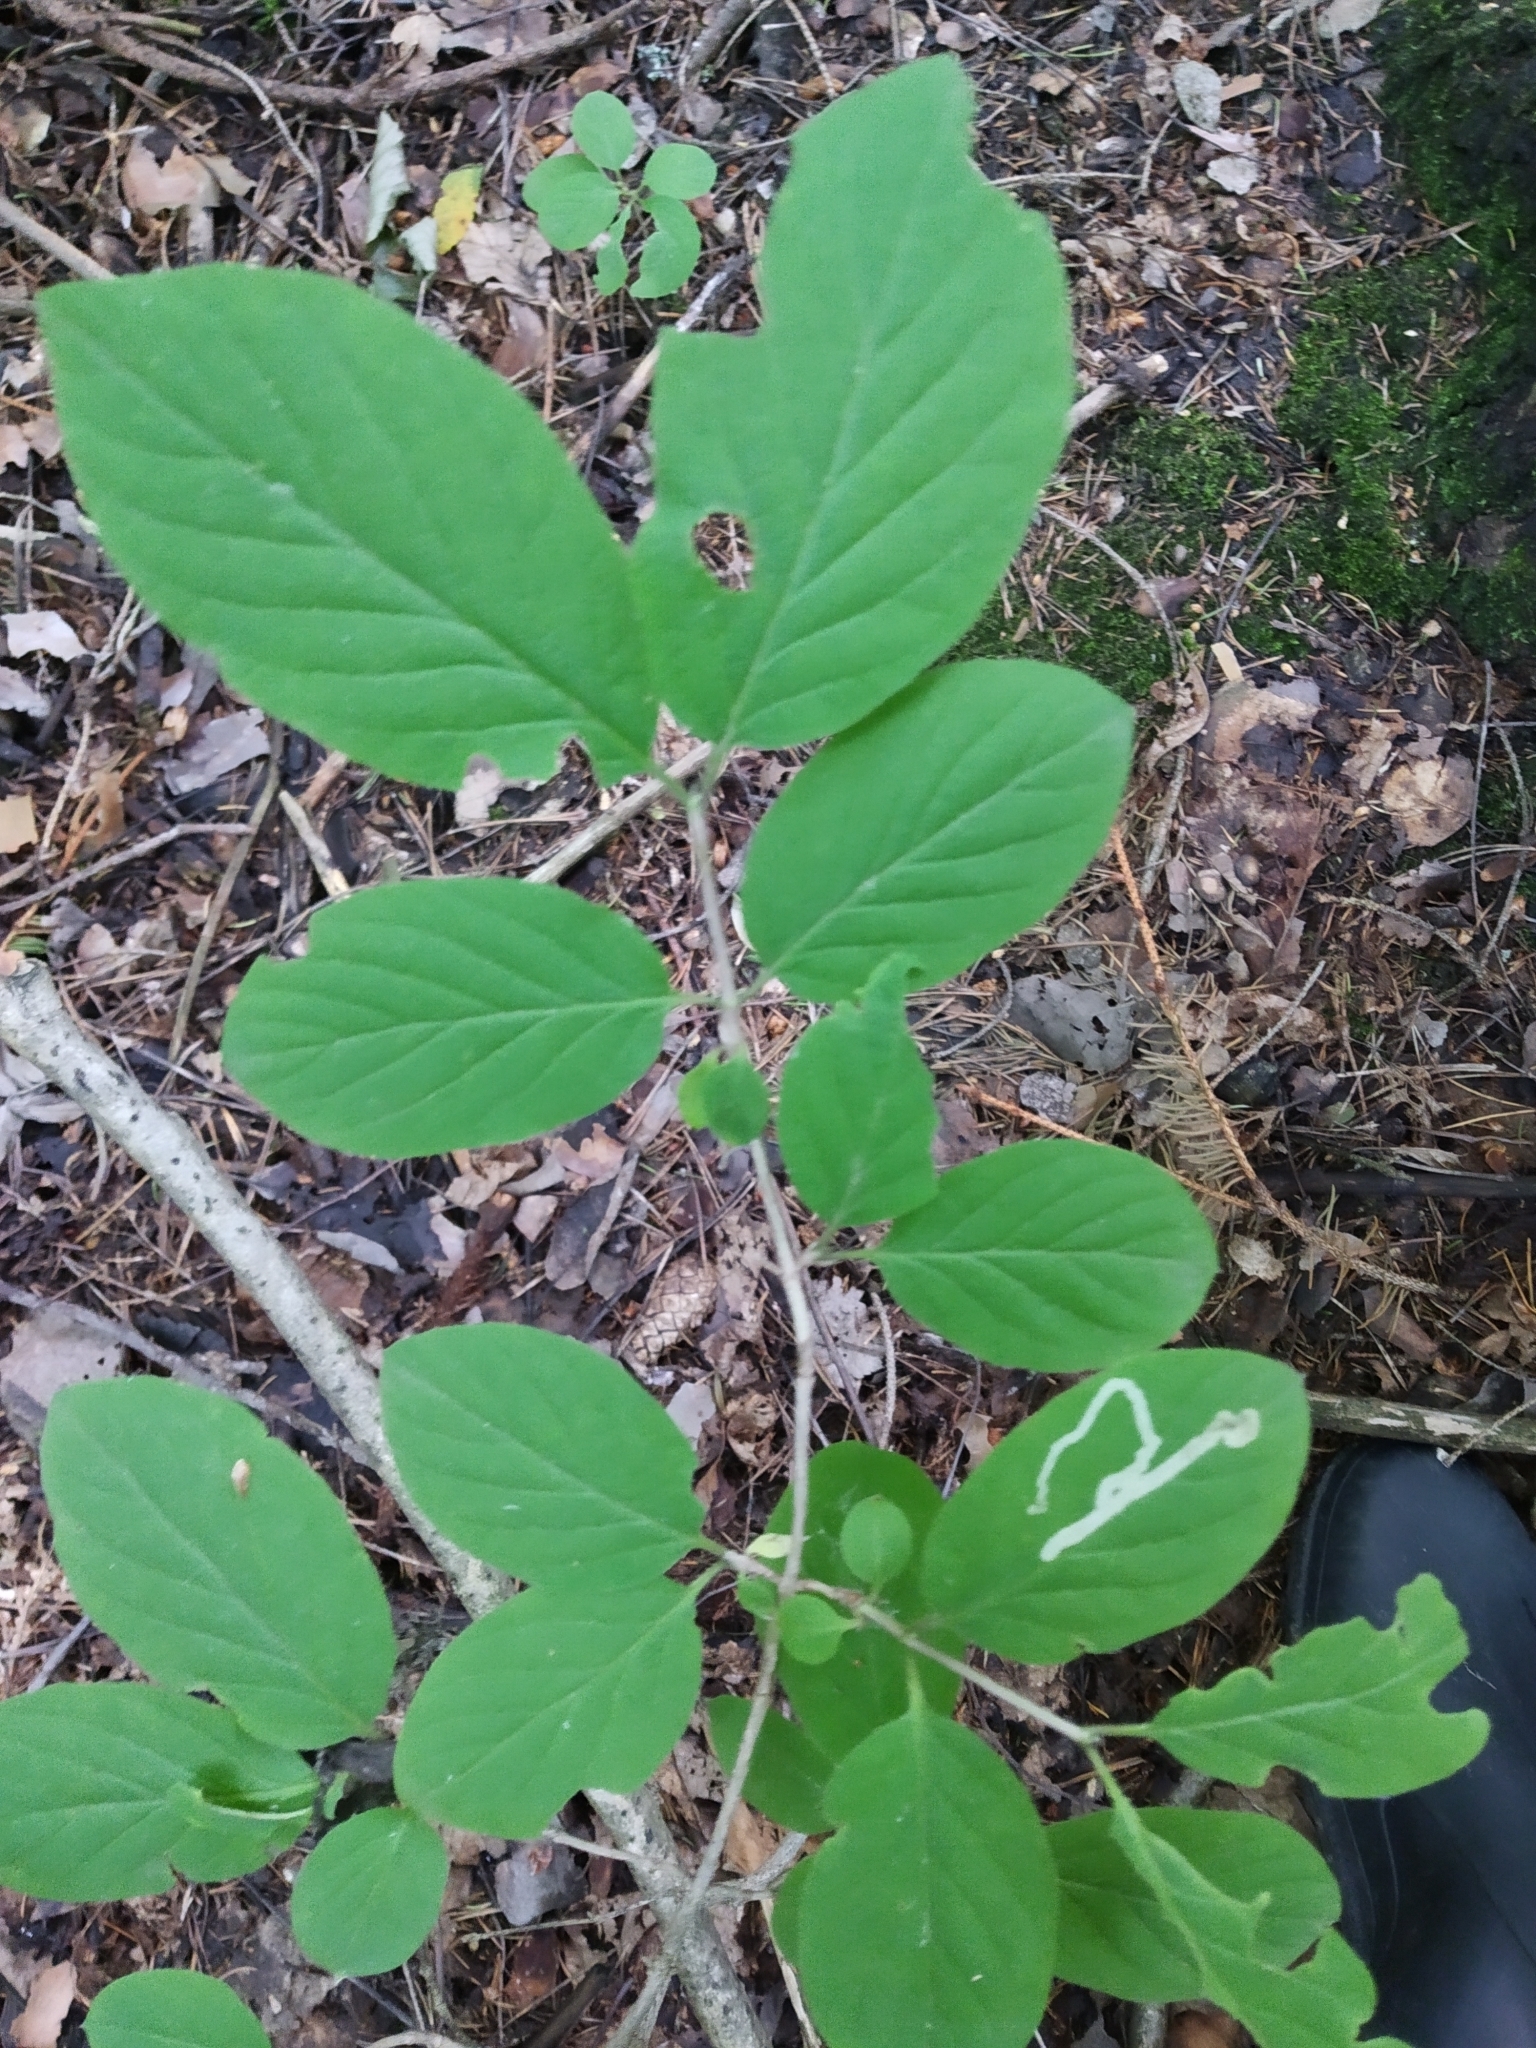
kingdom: Plantae
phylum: Tracheophyta
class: Magnoliopsida
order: Dipsacales
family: Caprifoliaceae
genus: Lonicera
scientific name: Lonicera xylosteum
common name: Fly honeysuckle
